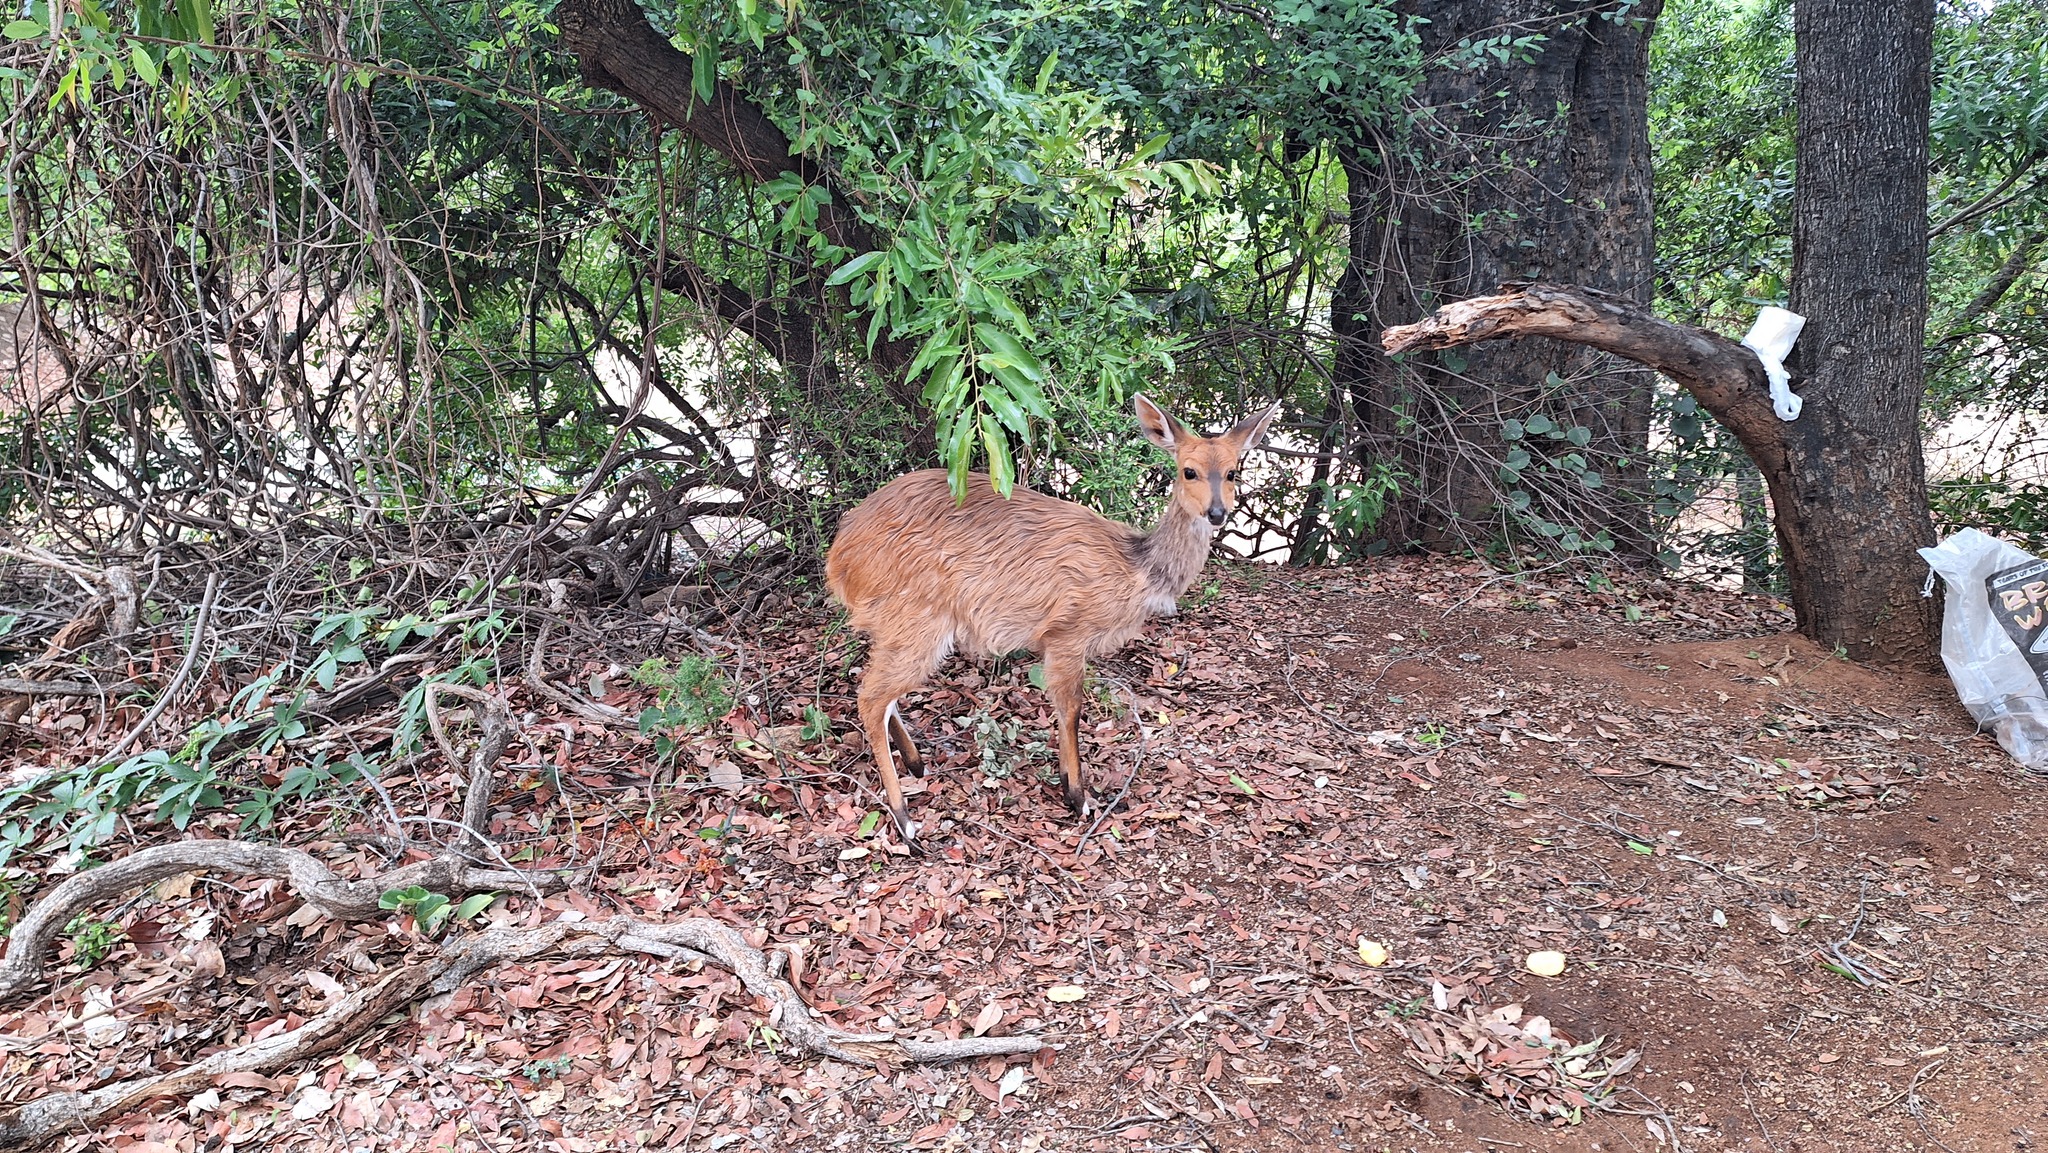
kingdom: Animalia
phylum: Chordata
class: Mammalia
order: Artiodactyla
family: Bovidae
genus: Tragelaphus
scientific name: Tragelaphus scriptus
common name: Bushbuck
